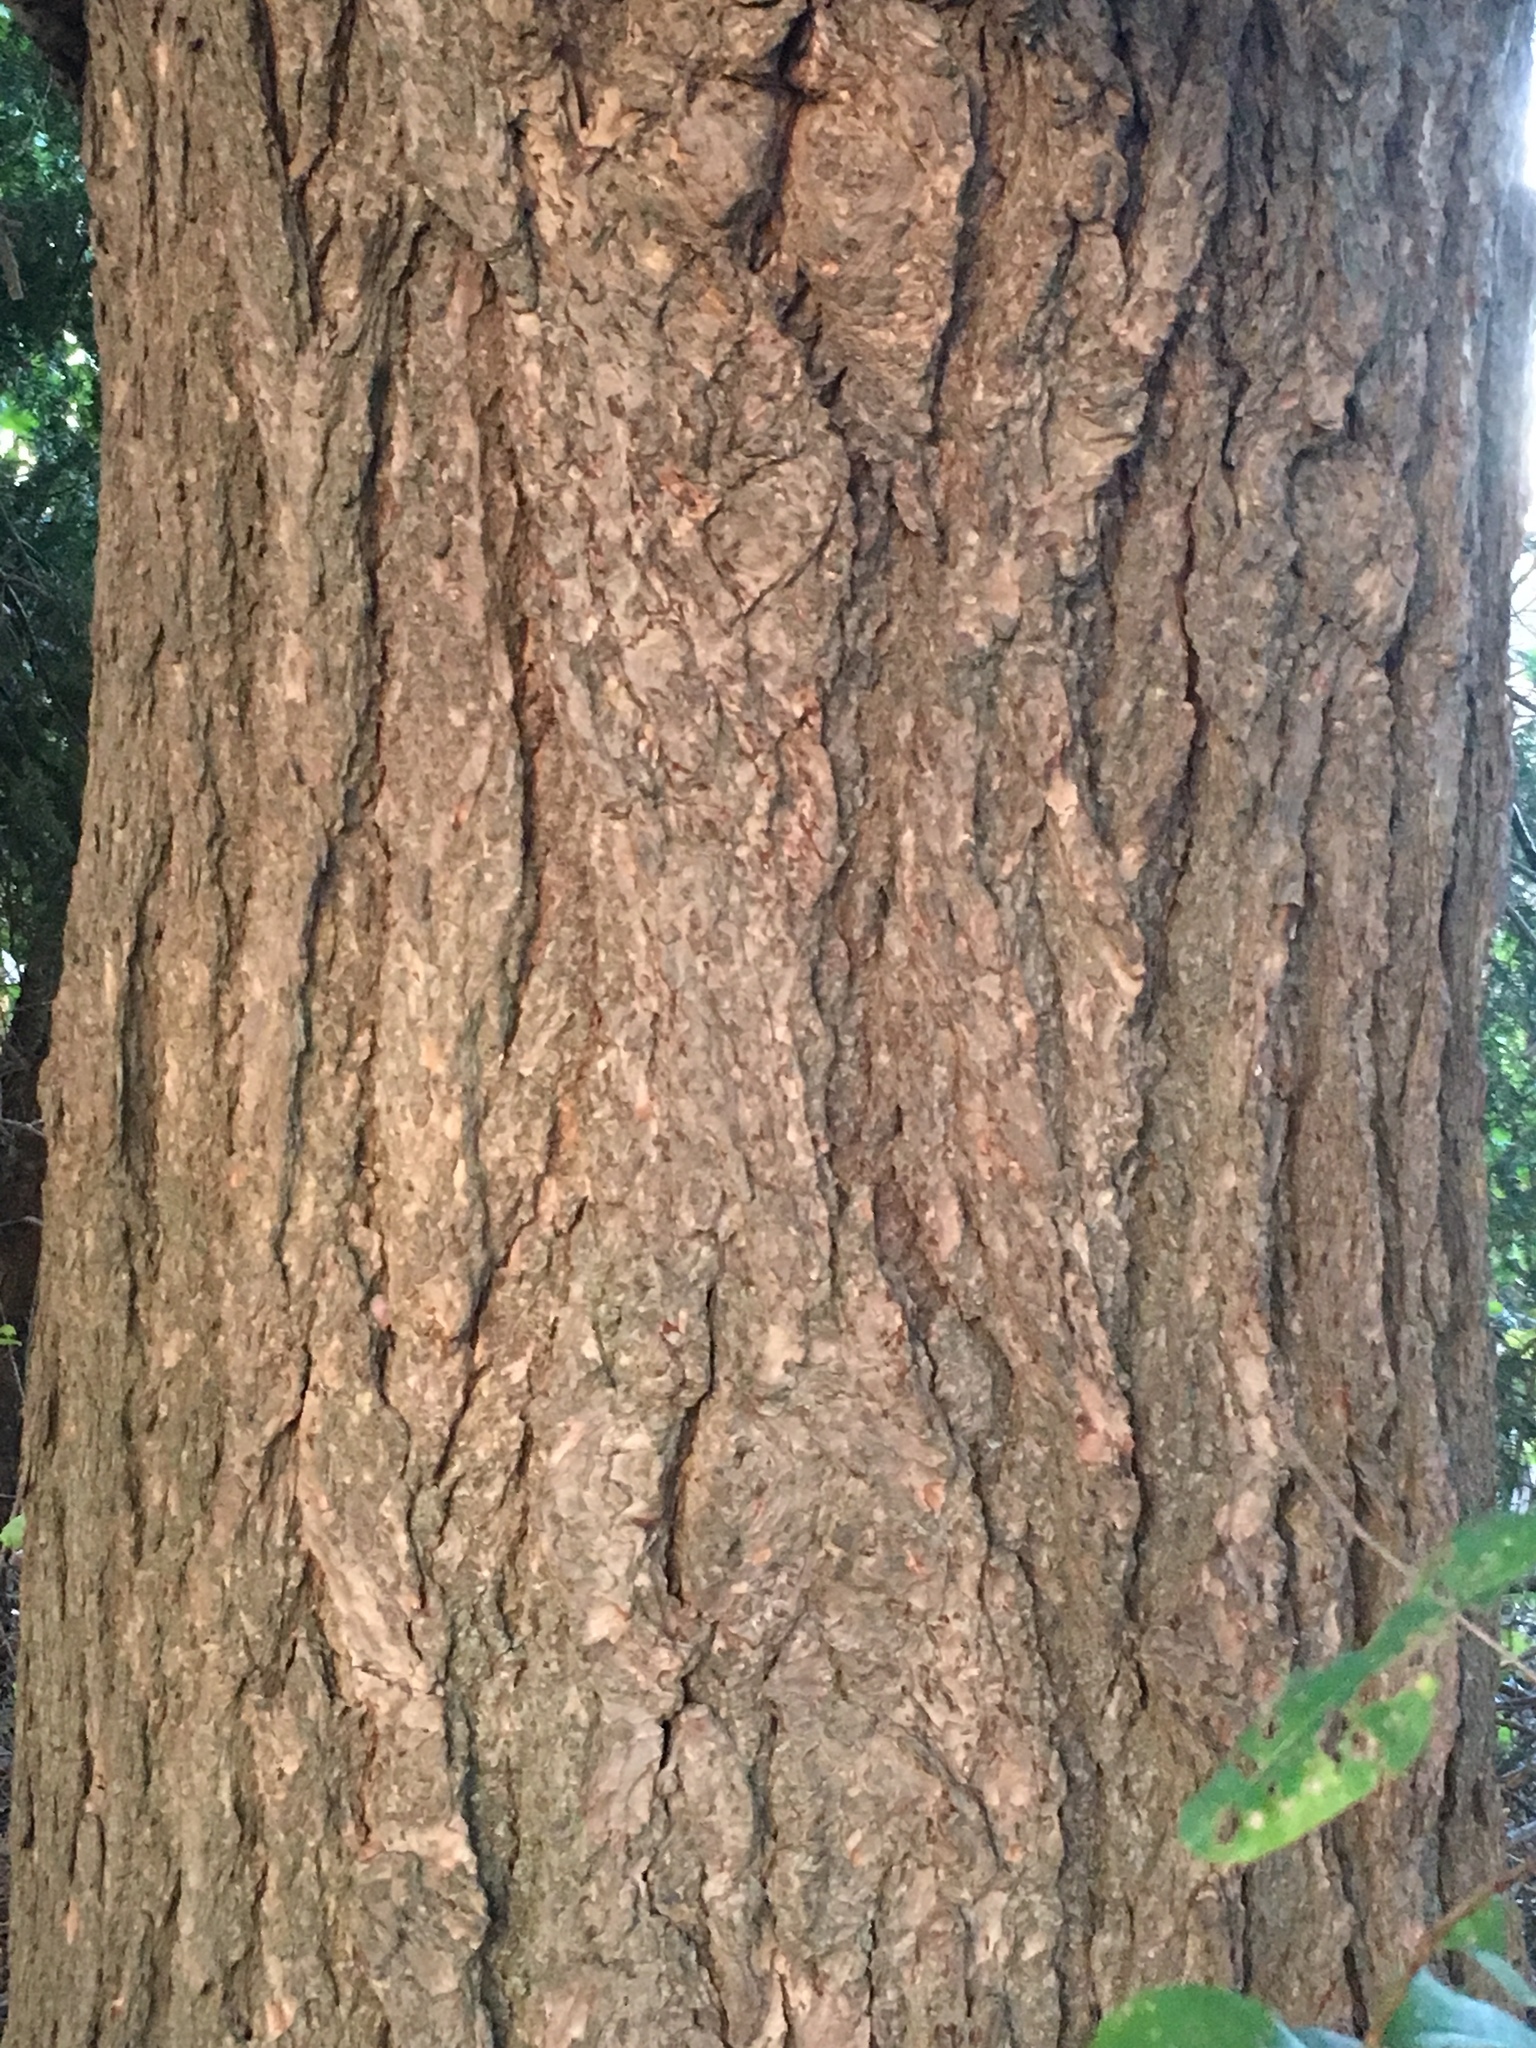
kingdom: Plantae
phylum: Tracheophyta
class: Pinopsida
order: Pinales
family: Pinaceae
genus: Tsuga
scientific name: Tsuga canadensis
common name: Eastern hemlock
